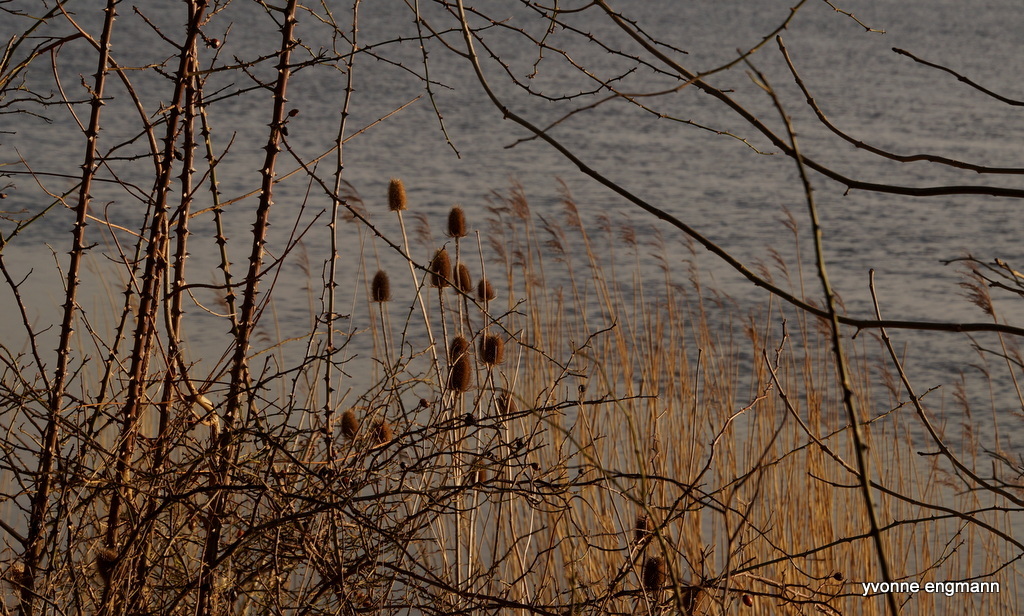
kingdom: Plantae
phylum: Tracheophyta
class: Magnoliopsida
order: Dipsacales
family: Caprifoliaceae
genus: Dipsacus
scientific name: Dipsacus fullonum
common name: Teasel
